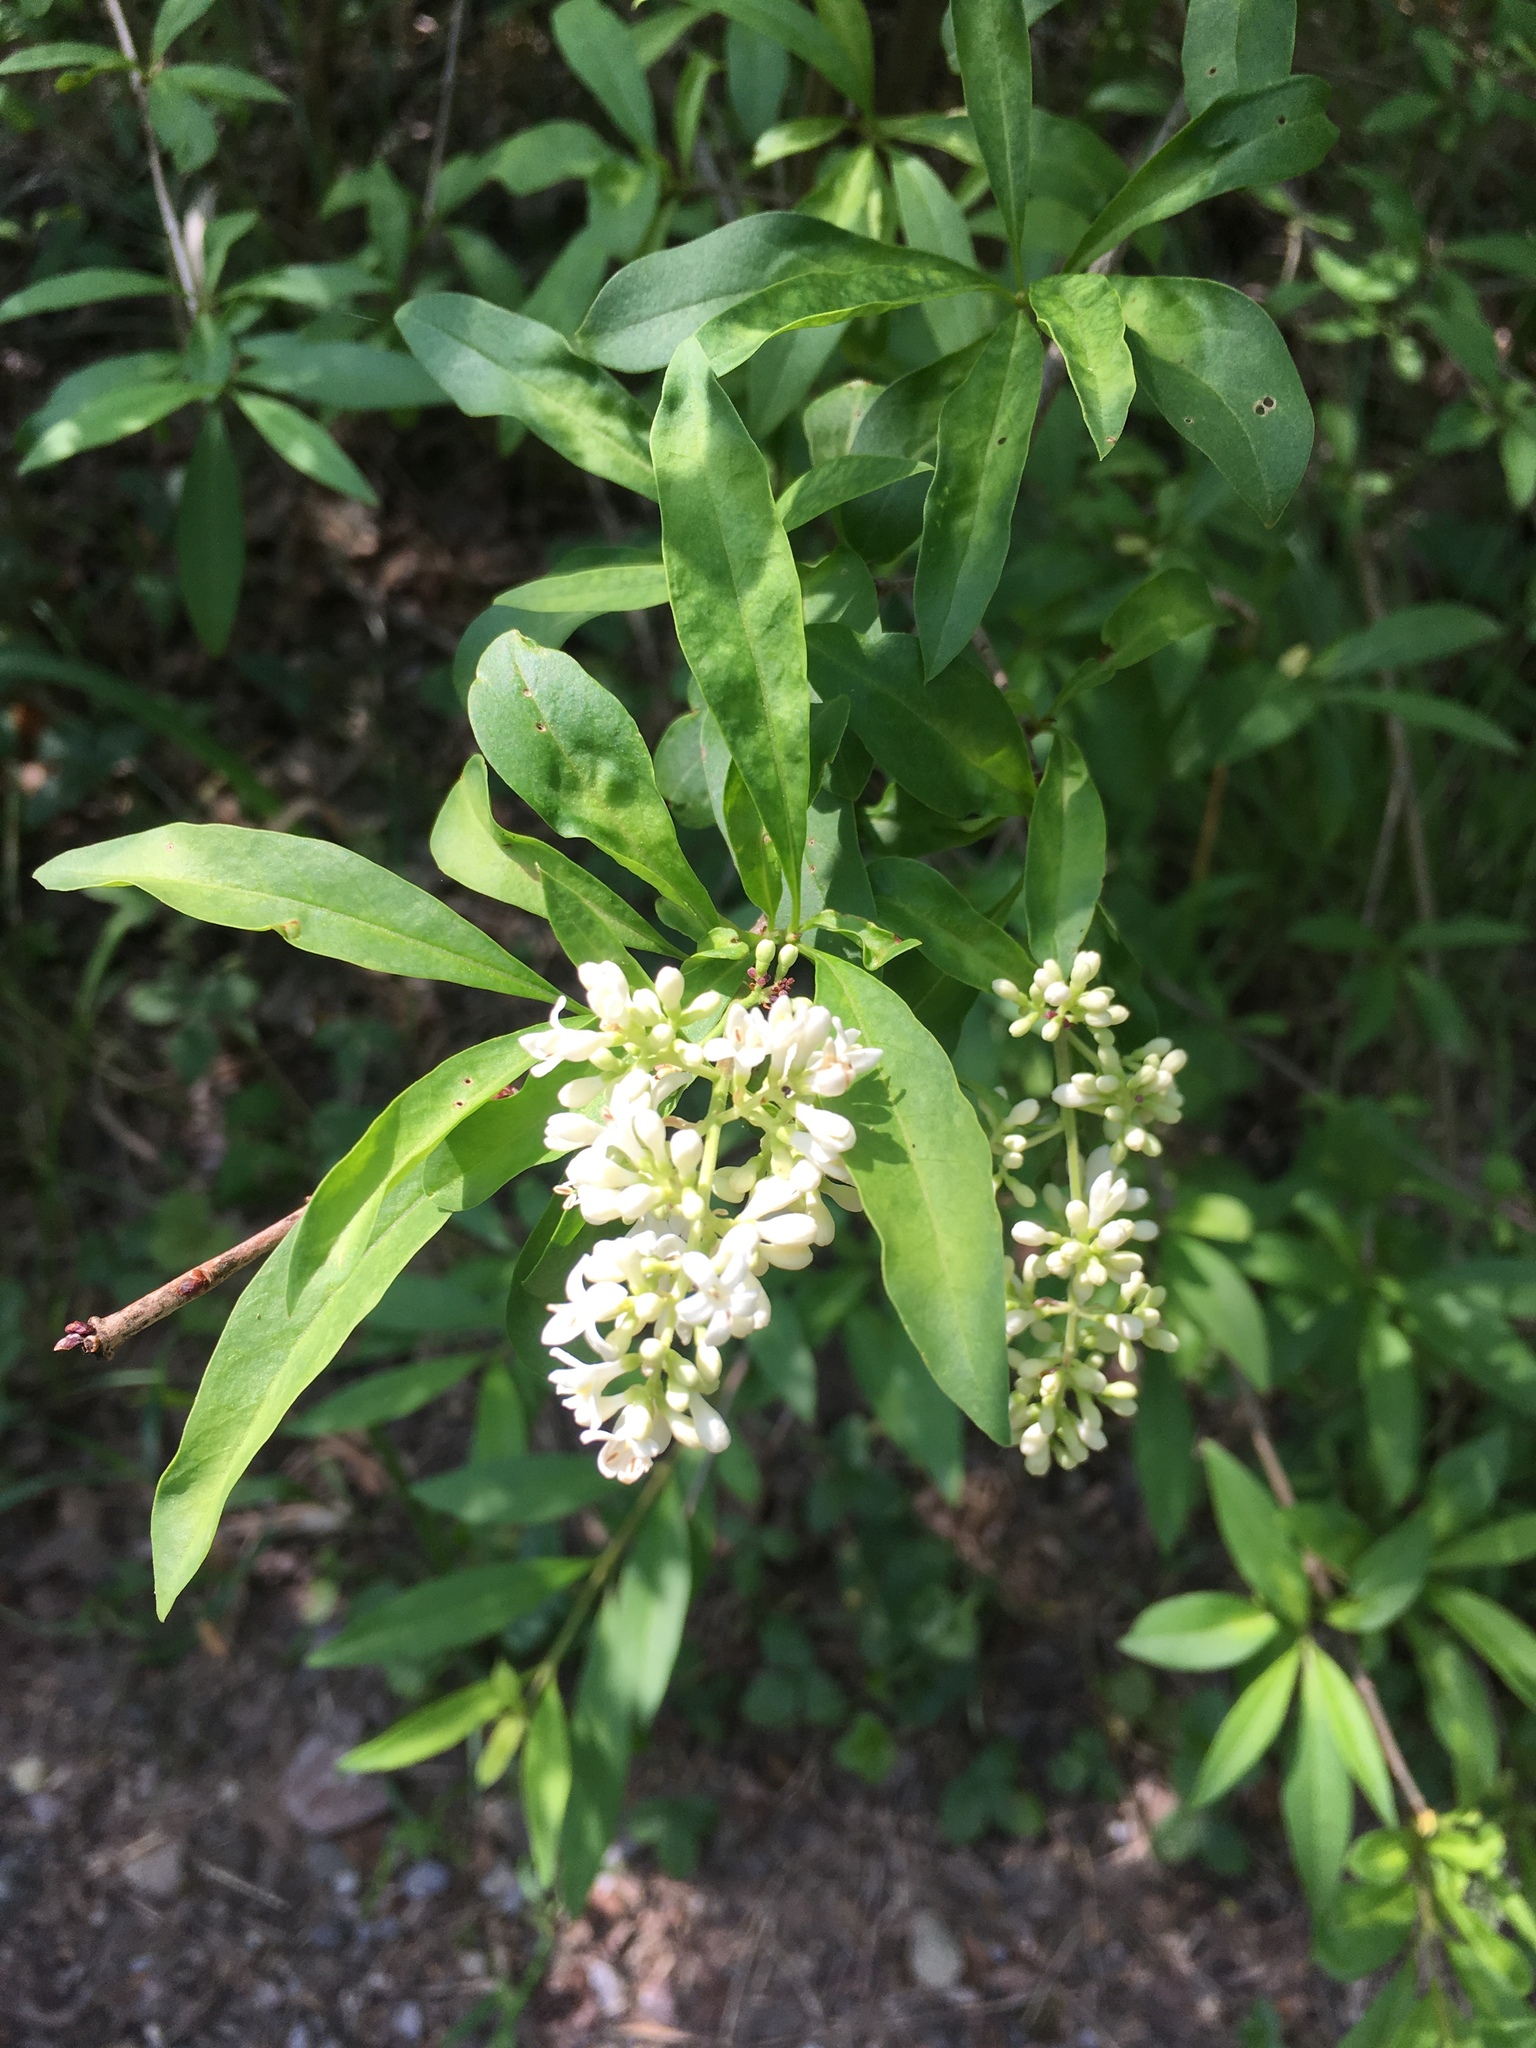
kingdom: Plantae
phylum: Tracheophyta
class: Magnoliopsida
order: Lamiales
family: Oleaceae
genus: Ligustrum
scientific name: Ligustrum vulgare
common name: Wild privet
